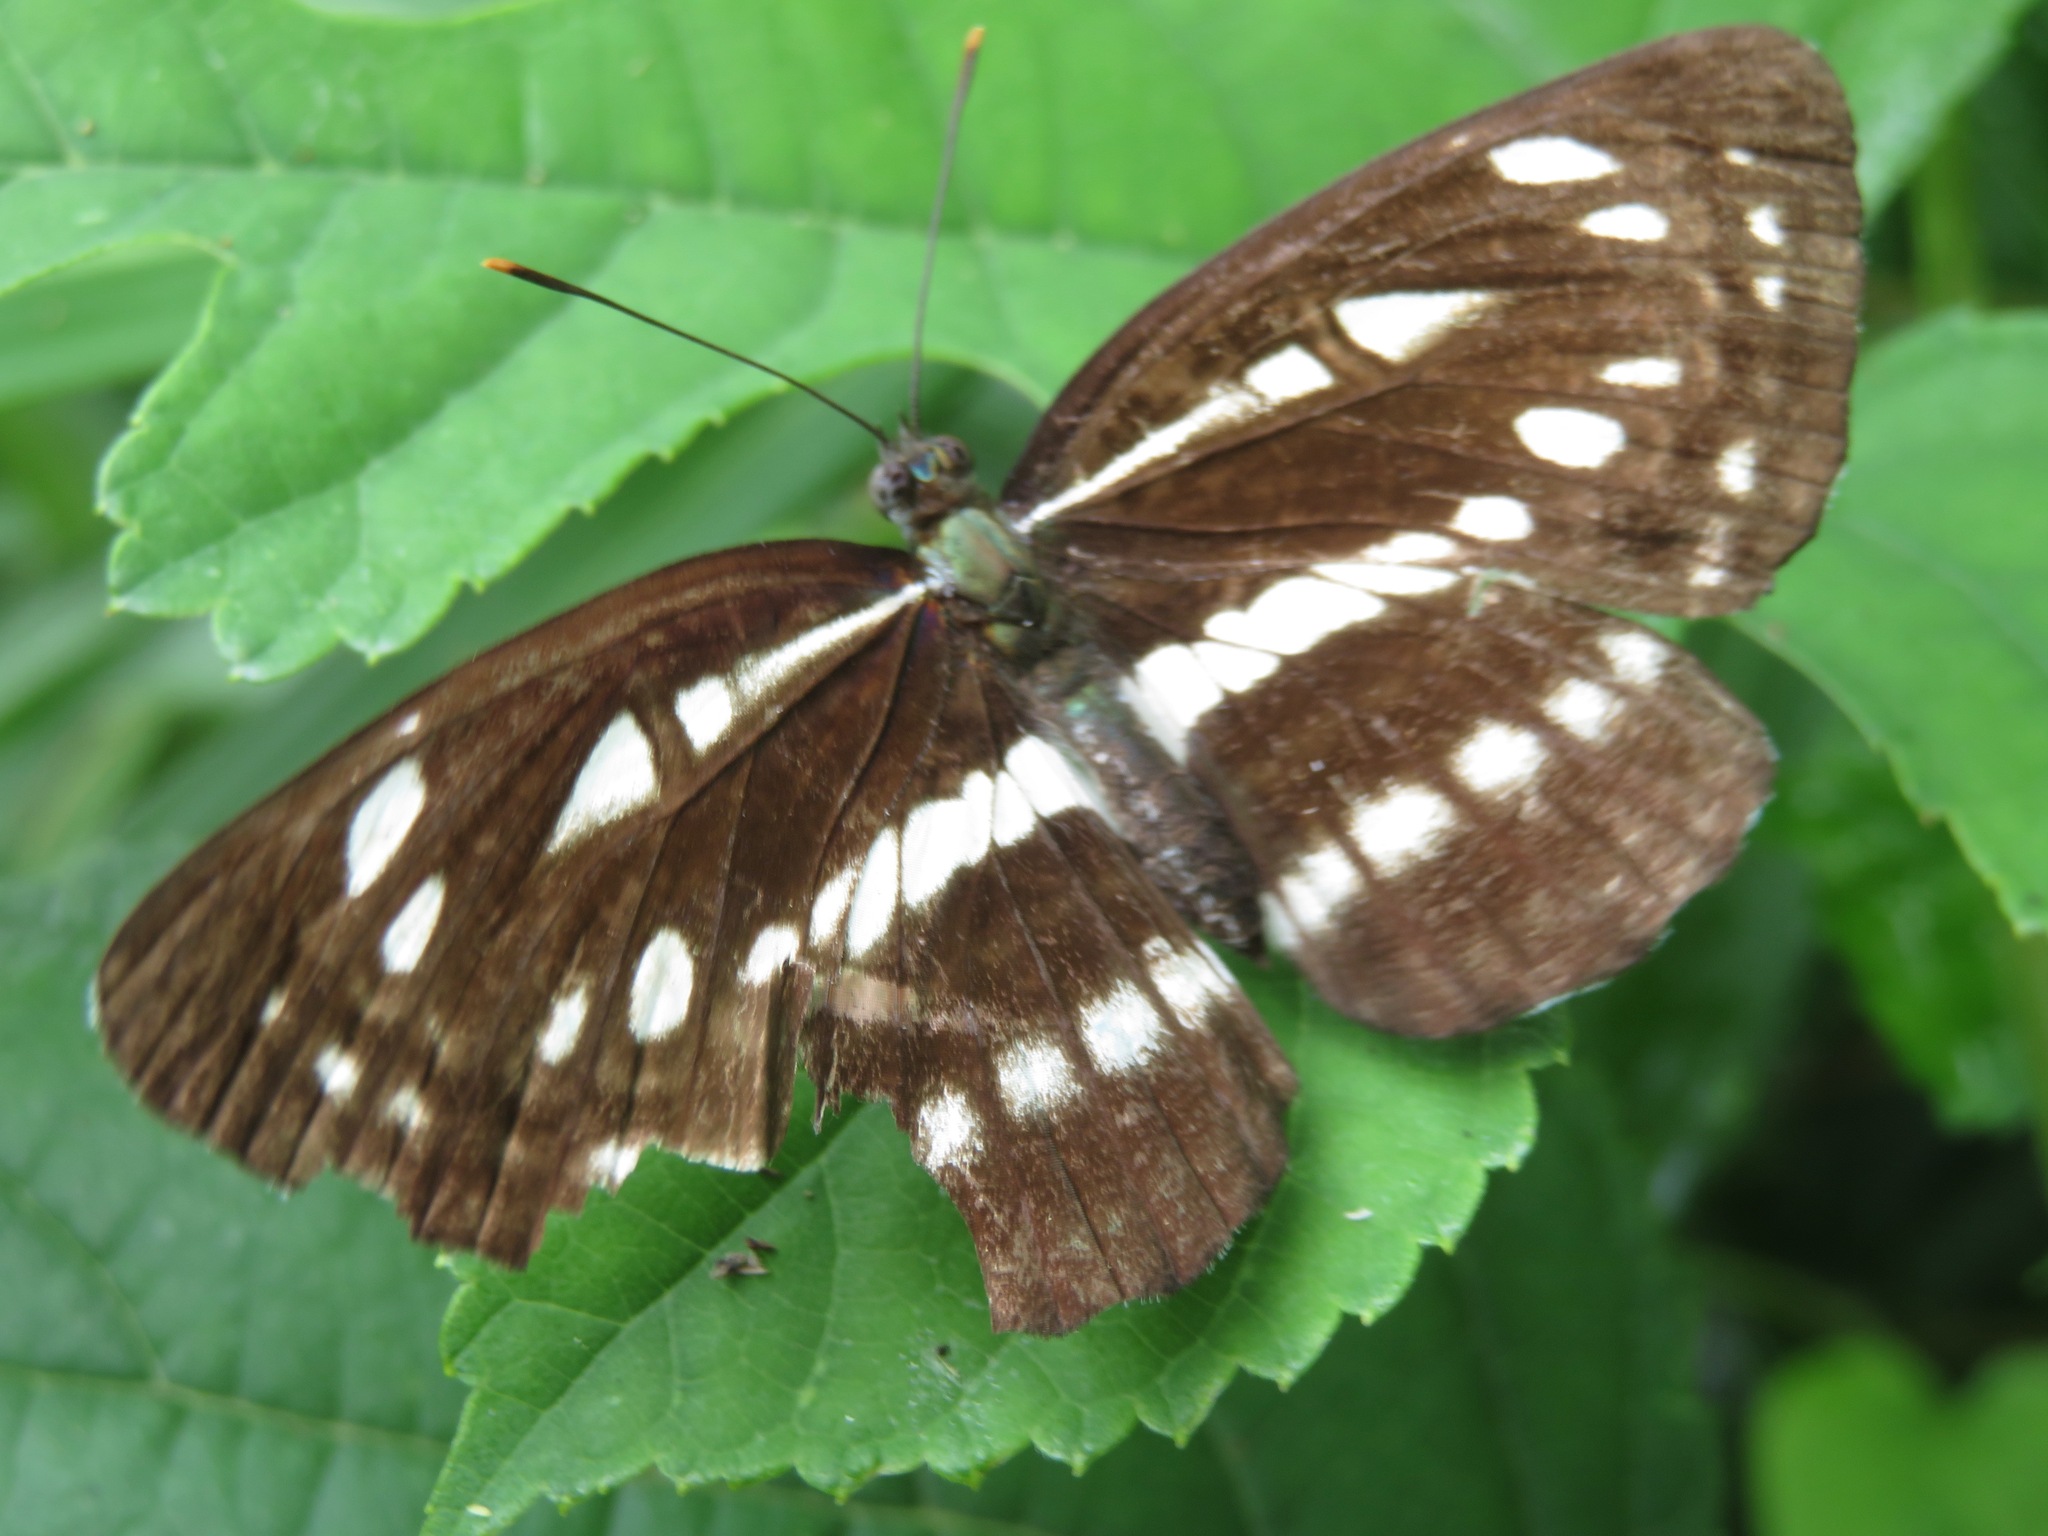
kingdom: Animalia
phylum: Arthropoda
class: Insecta
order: Lepidoptera
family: Nymphalidae
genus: Neptis
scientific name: Neptis sappho
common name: Common glider
